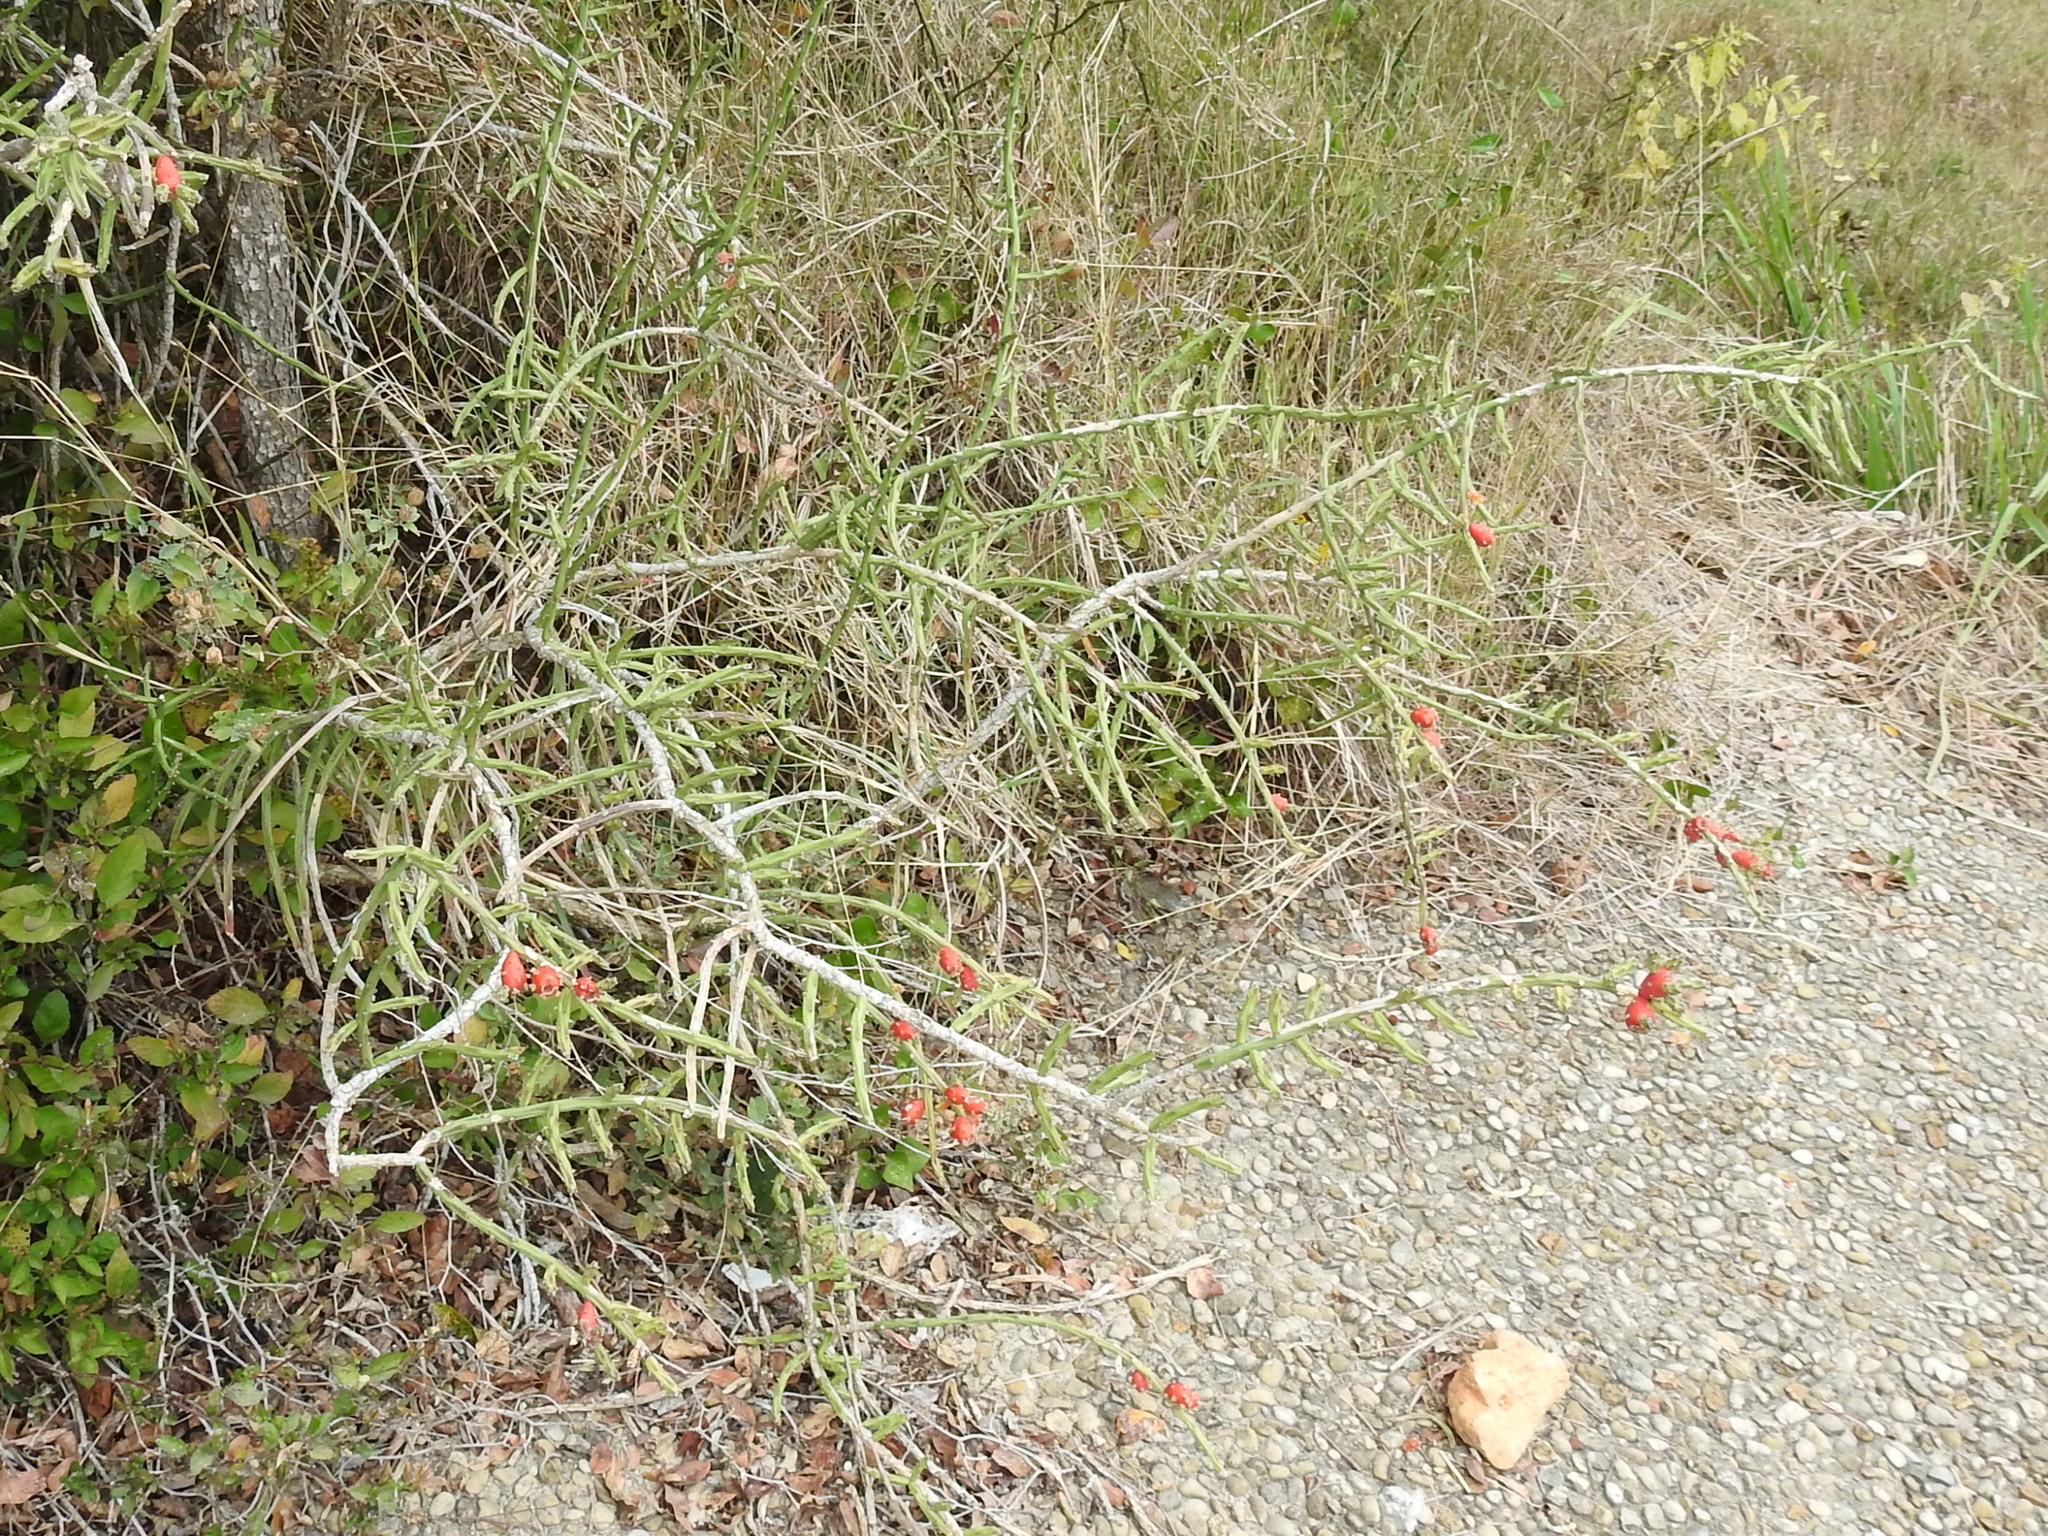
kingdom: Plantae
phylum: Tracheophyta
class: Magnoliopsida
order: Caryophyllales
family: Cactaceae
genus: Cylindropuntia
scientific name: Cylindropuntia leptocaulis
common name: Christmas cactus
